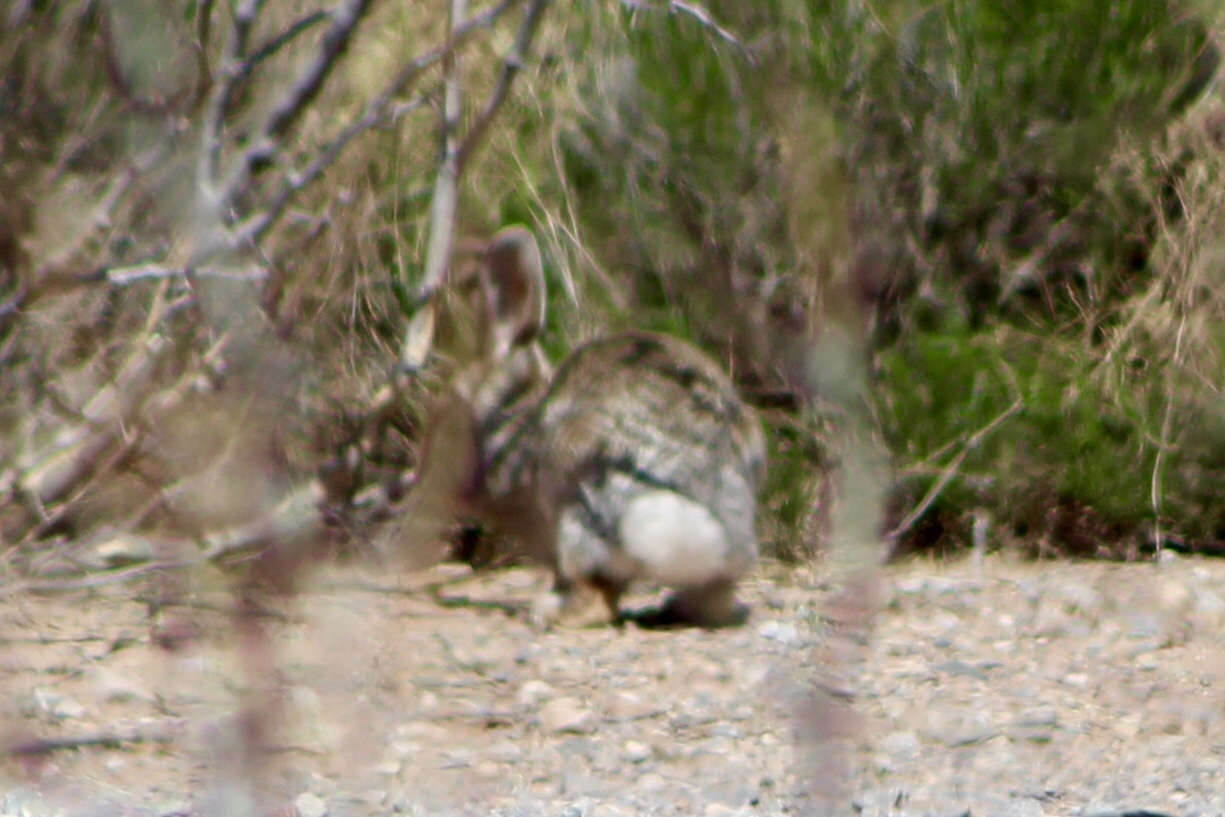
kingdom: Animalia
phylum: Chordata
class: Mammalia
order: Lagomorpha
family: Leporidae
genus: Sylvilagus
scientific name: Sylvilagus audubonii
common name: Desert cottontail
